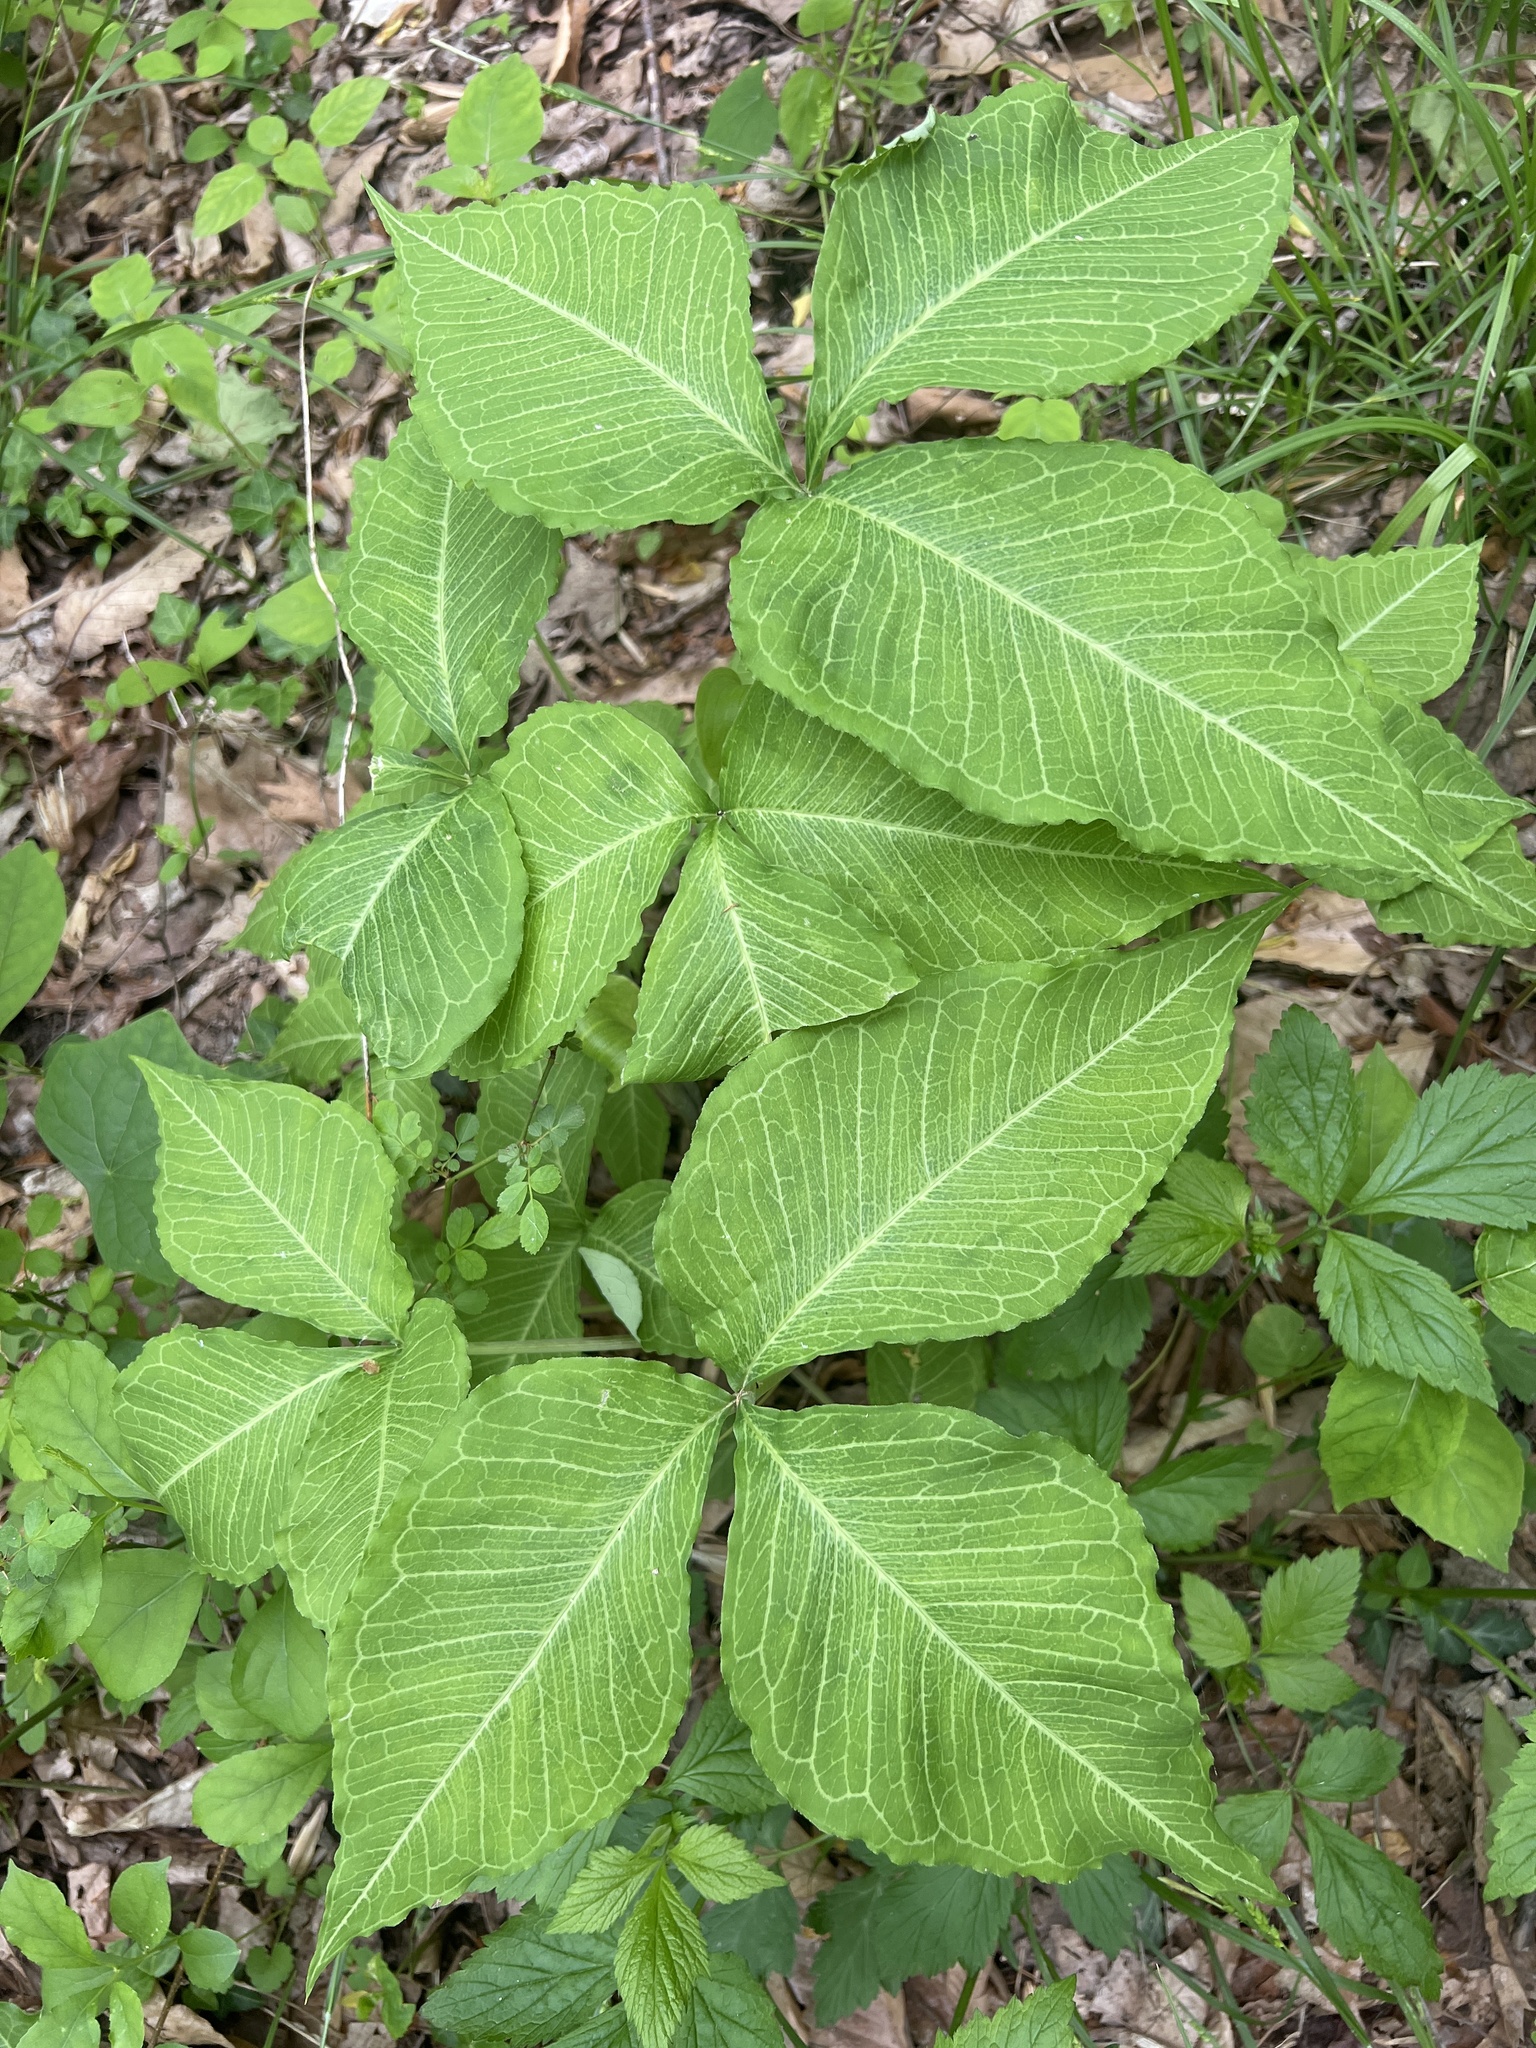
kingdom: Plantae
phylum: Tracheophyta
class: Liliopsida
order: Alismatales
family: Araceae
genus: Arisaema
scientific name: Arisaema triphyllum
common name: Jack-in-the-pulpit
